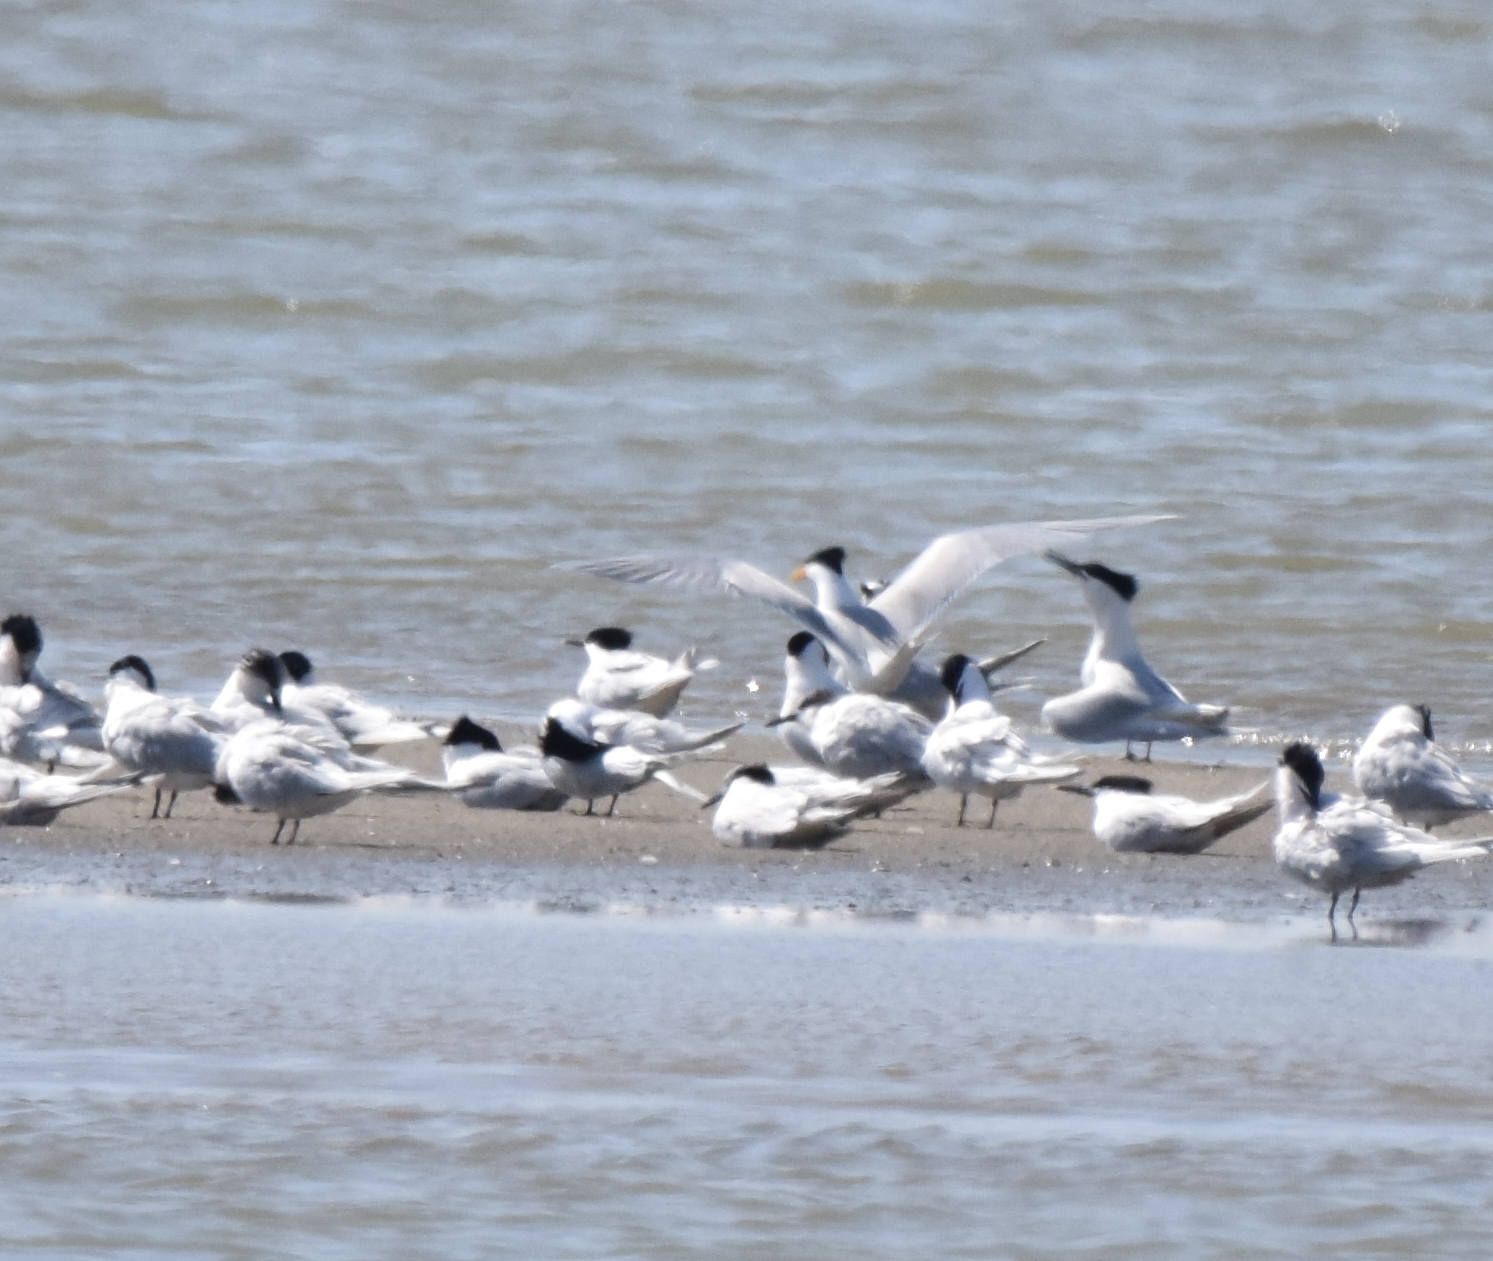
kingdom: Animalia
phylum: Chordata
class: Aves
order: Charadriiformes
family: Laridae
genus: Thalasseus
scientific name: Thalasseus bengalensis
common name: Lesser crested tern
